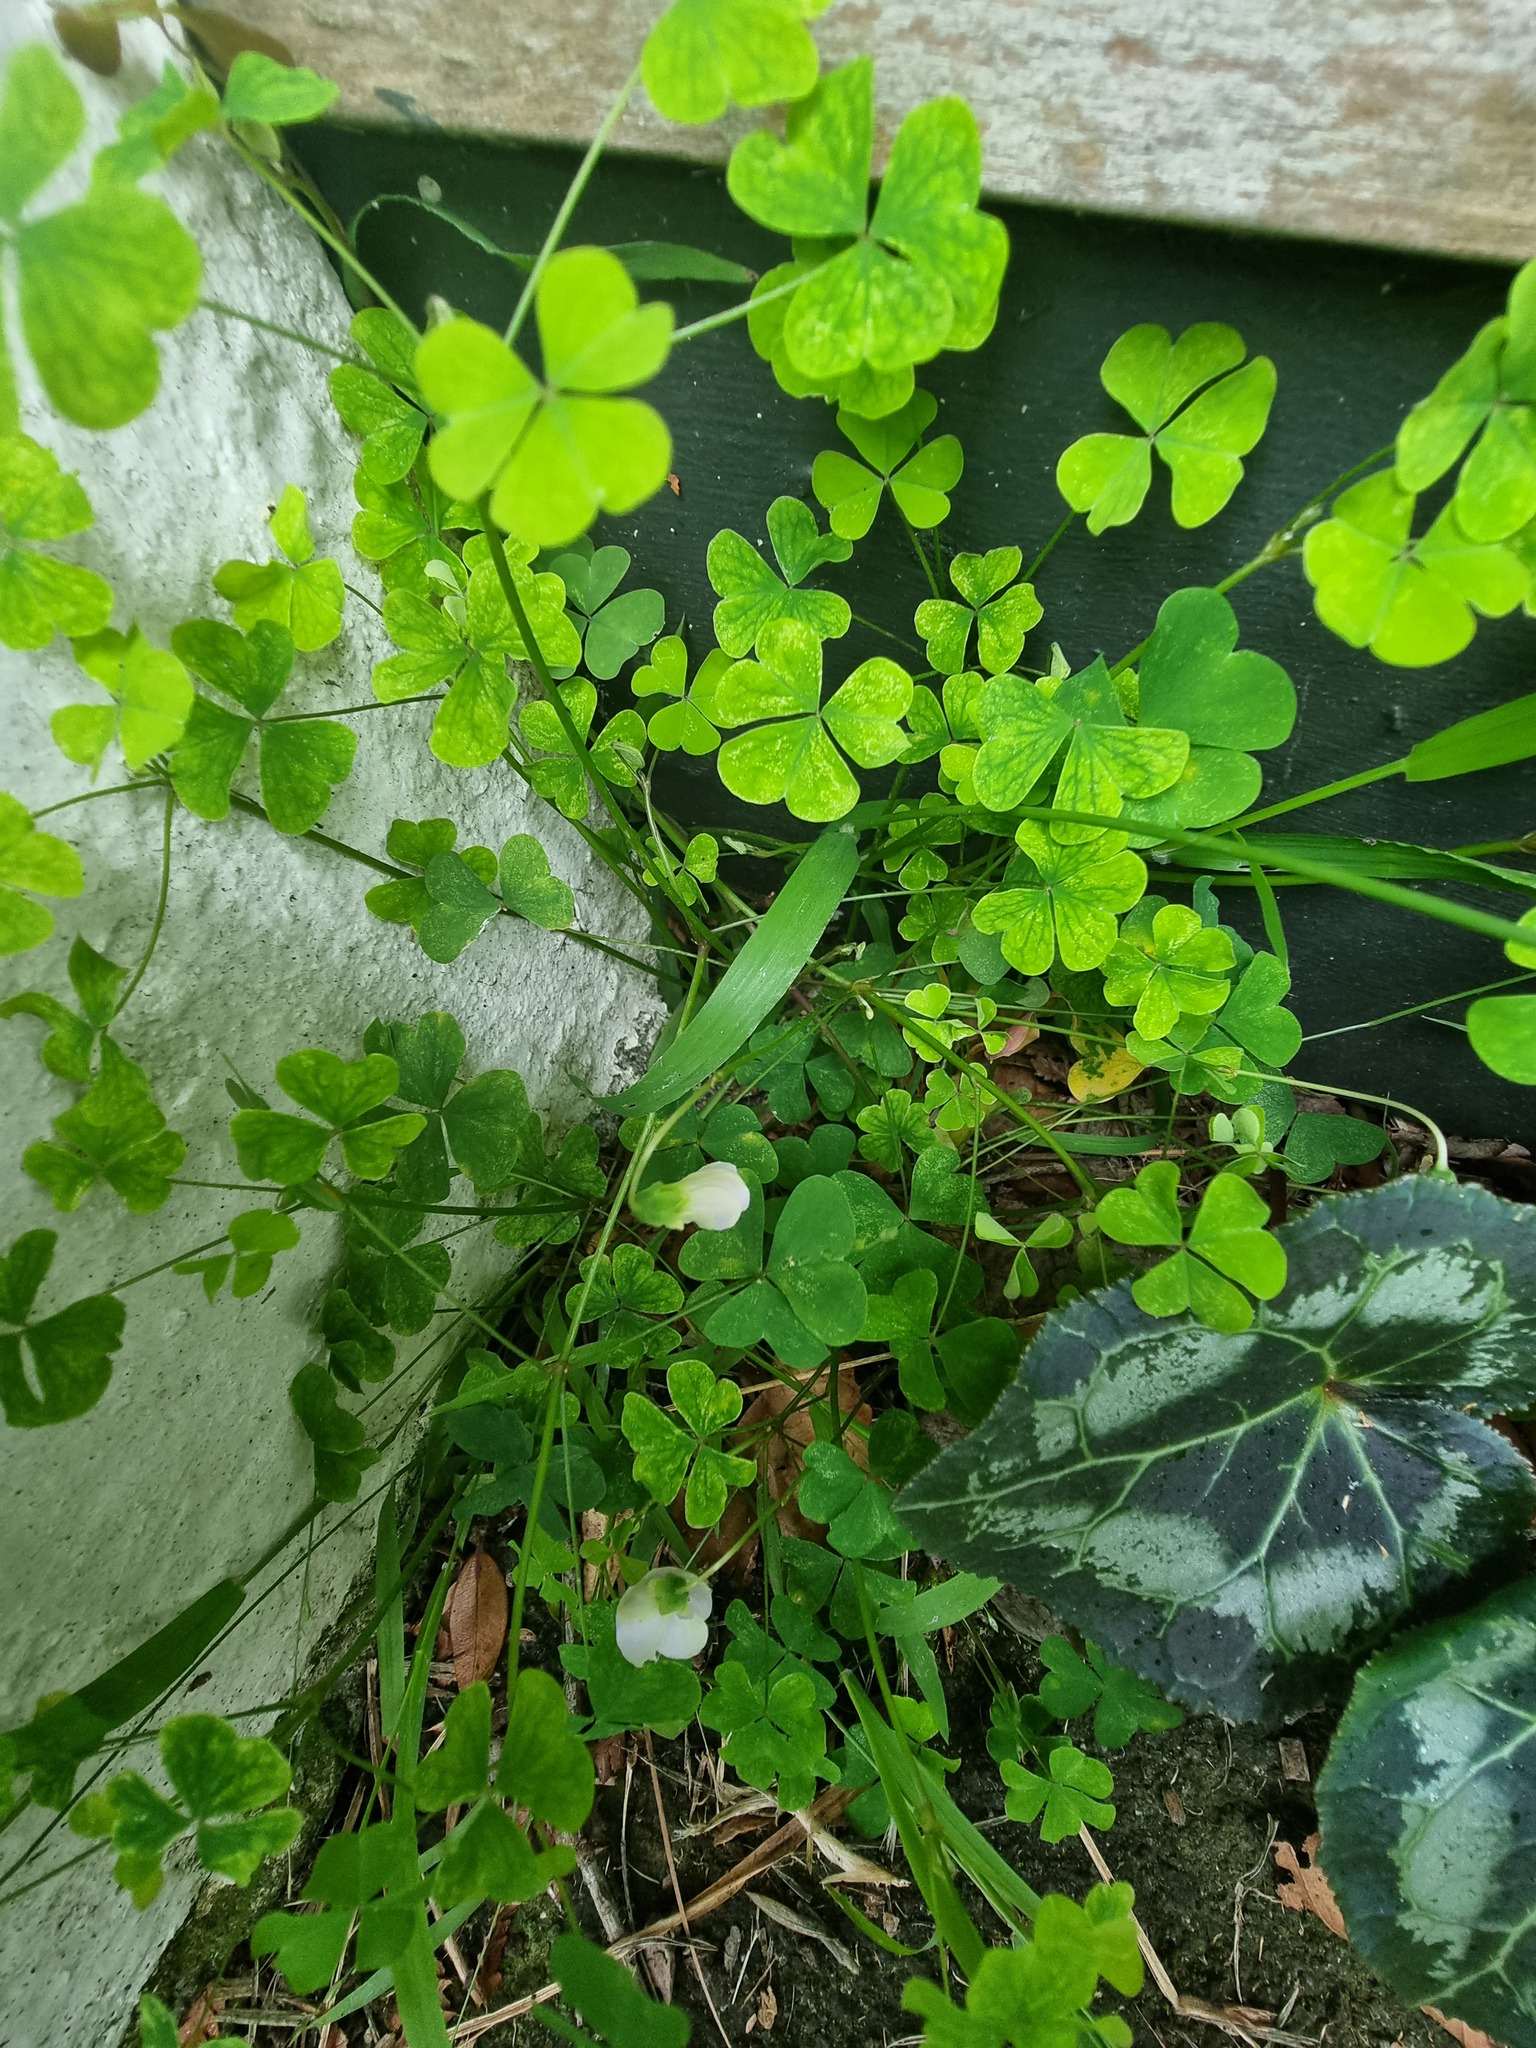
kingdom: Plantae
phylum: Tracheophyta
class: Magnoliopsida
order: Oxalidales
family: Oxalidaceae
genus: Oxalis
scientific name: Oxalis incarnata
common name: Pale pink-sorrel
